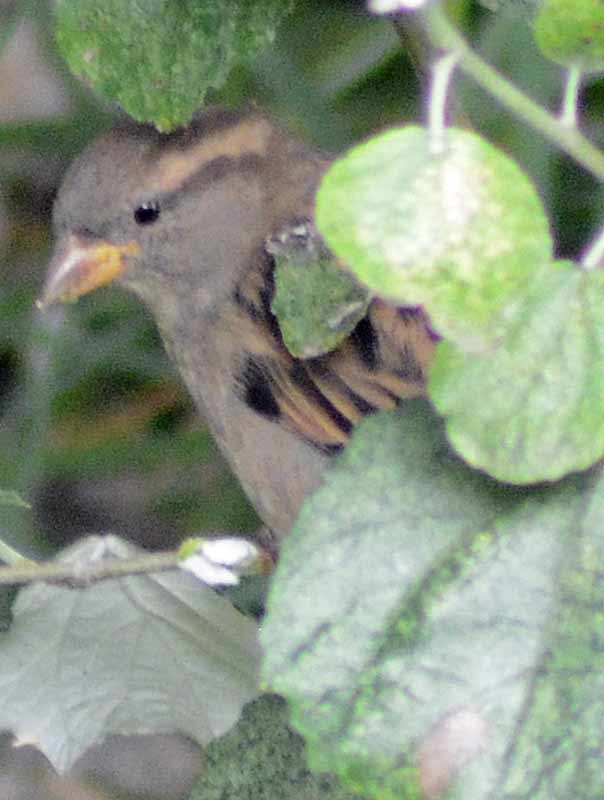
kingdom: Animalia
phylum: Chordata
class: Aves
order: Passeriformes
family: Passeridae
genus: Passer
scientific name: Passer domesticus
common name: House sparrow
